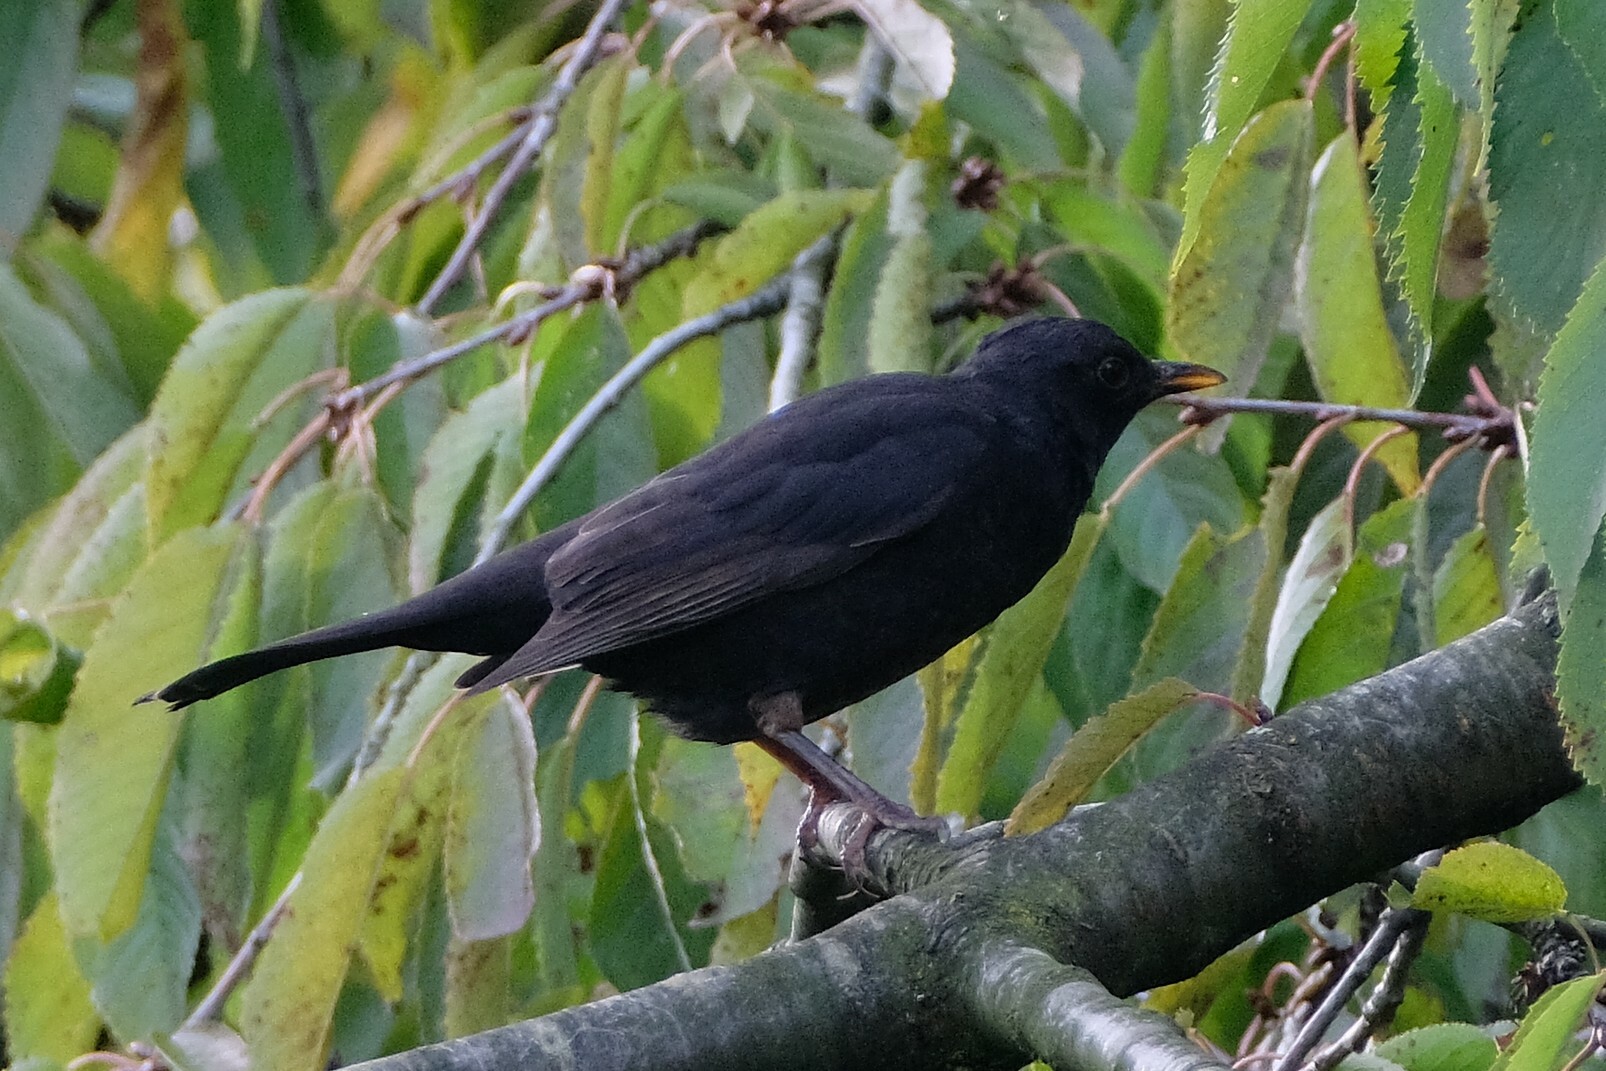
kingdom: Animalia
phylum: Chordata
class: Aves
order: Passeriformes
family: Turdidae
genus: Turdus
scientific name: Turdus merula
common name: Common blackbird
